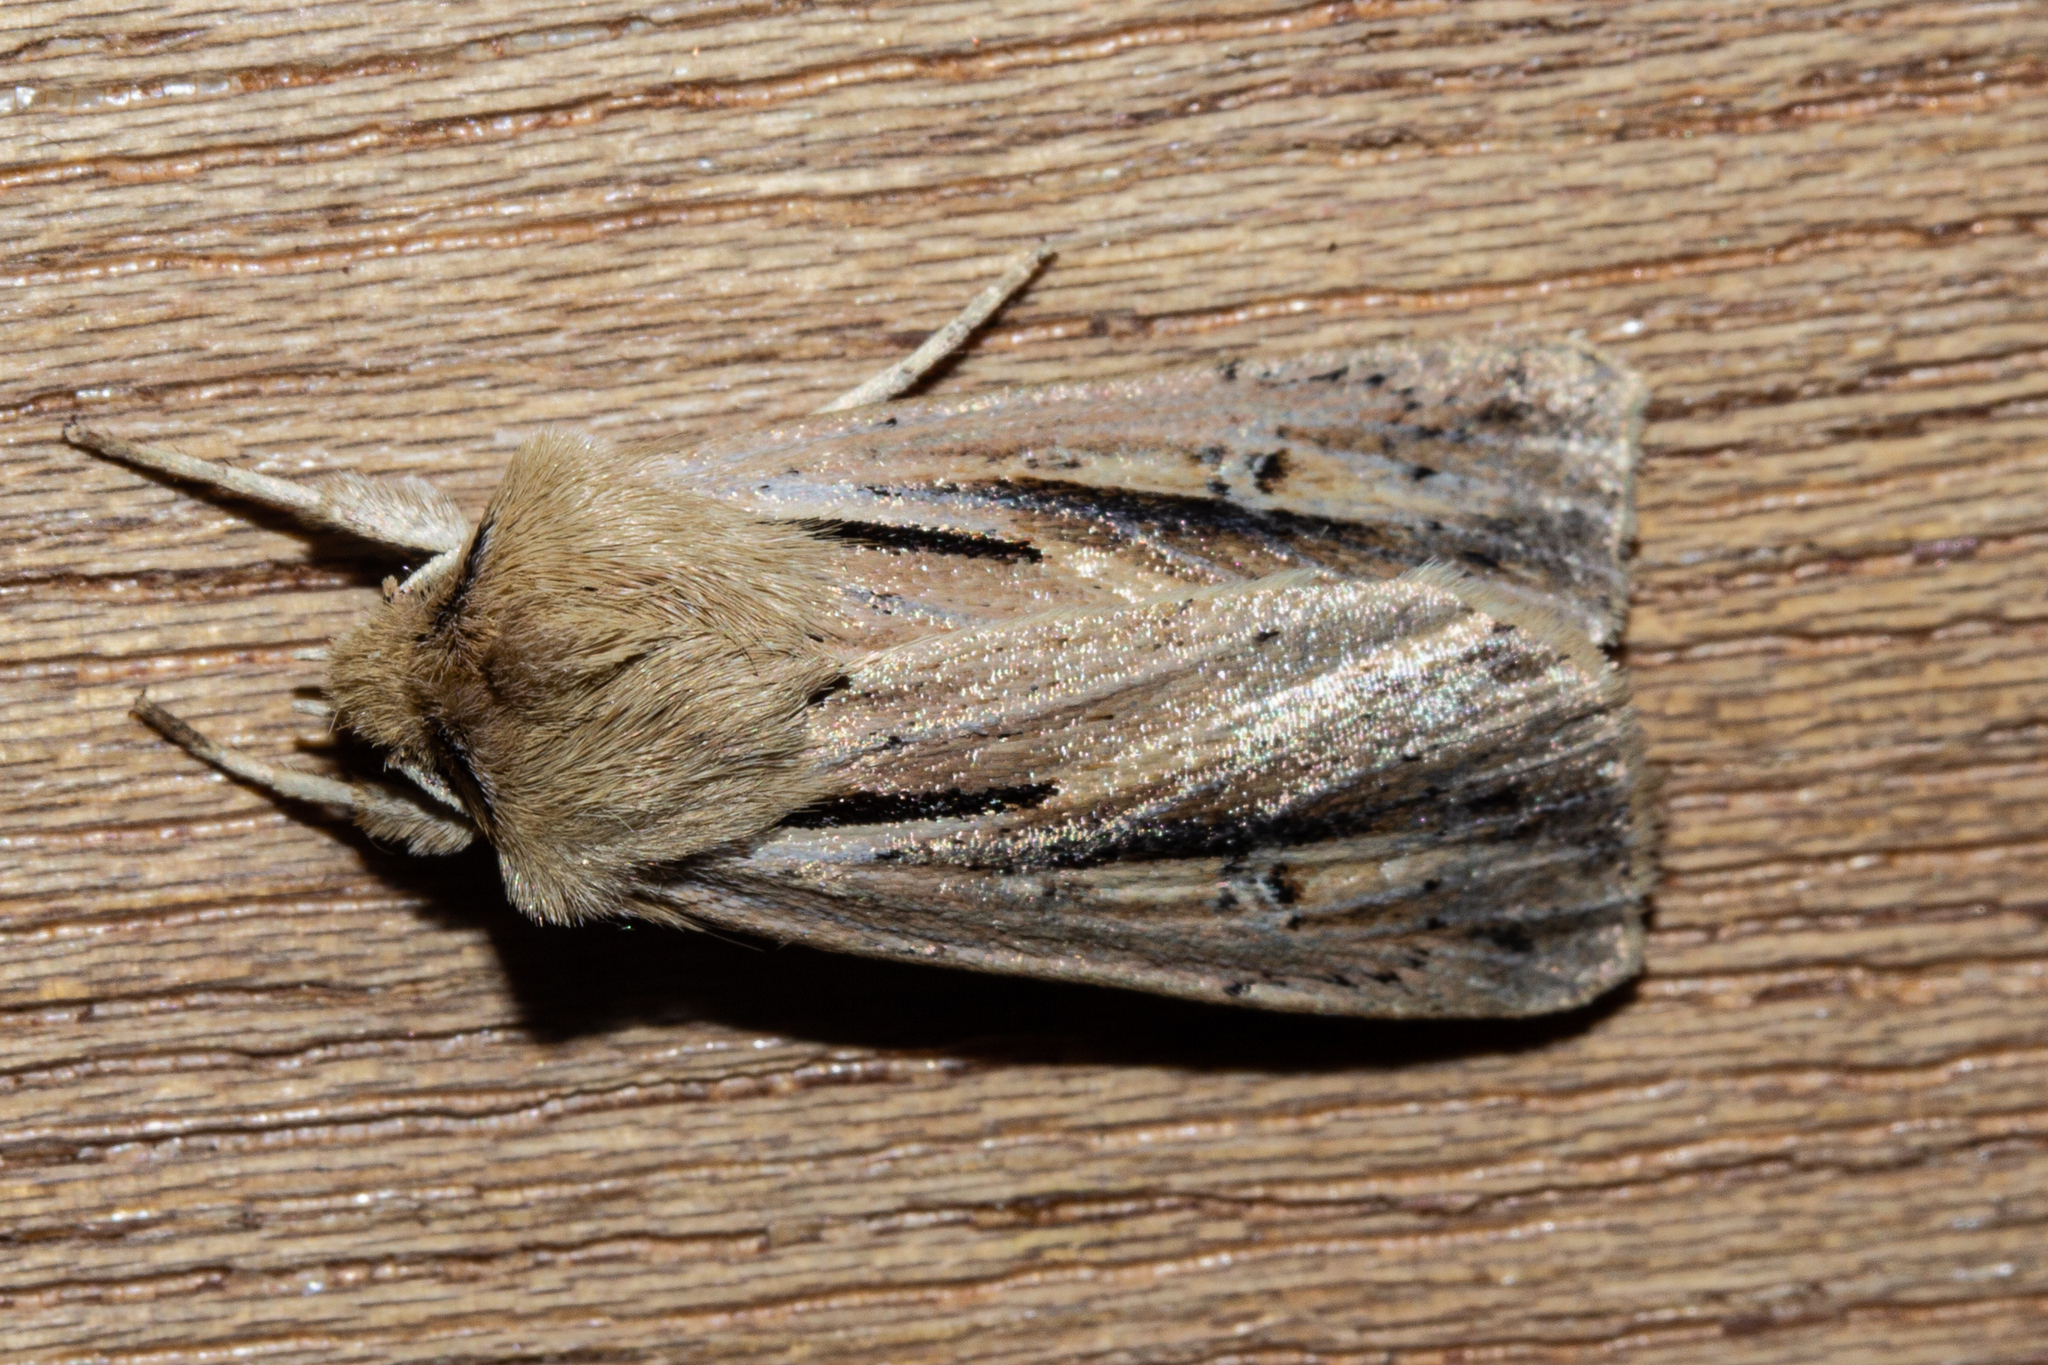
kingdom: Animalia
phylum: Arthropoda
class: Insecta
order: Lepidoptera
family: Noctuidae
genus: Ichneutica
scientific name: Ichneutica propria
